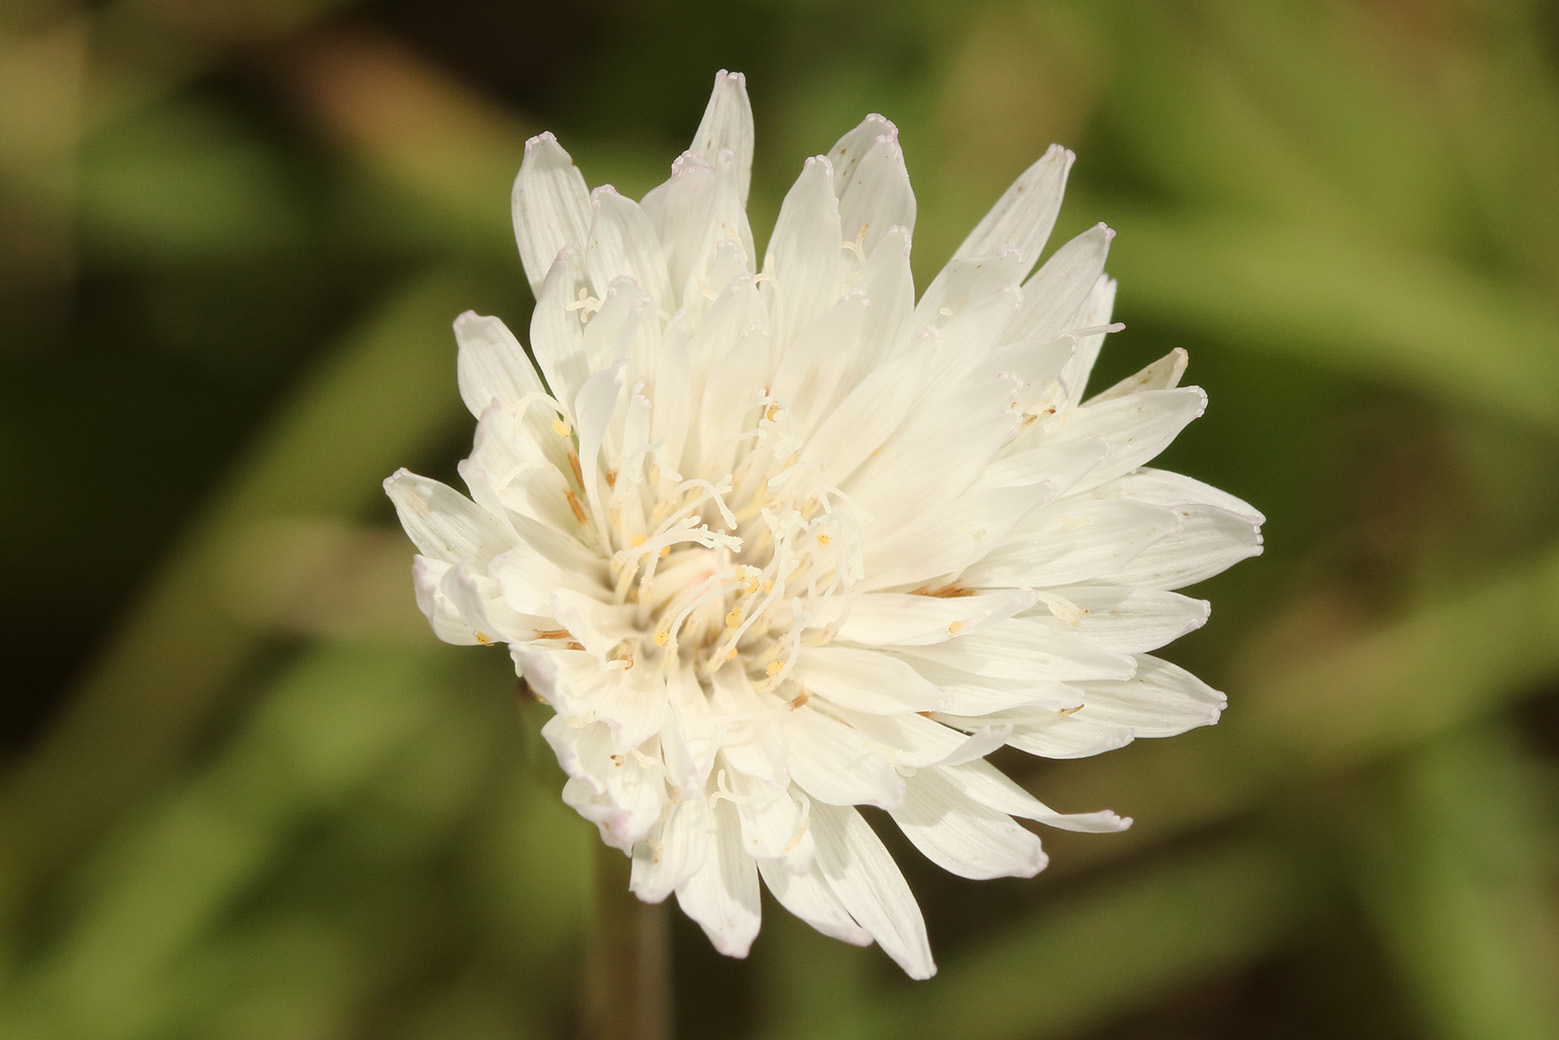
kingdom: Plantae
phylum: Tracheophyta
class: Magnoliopsida
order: Asterales
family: Asteraceae
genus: Picrosia
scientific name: Picrosia longifolia
